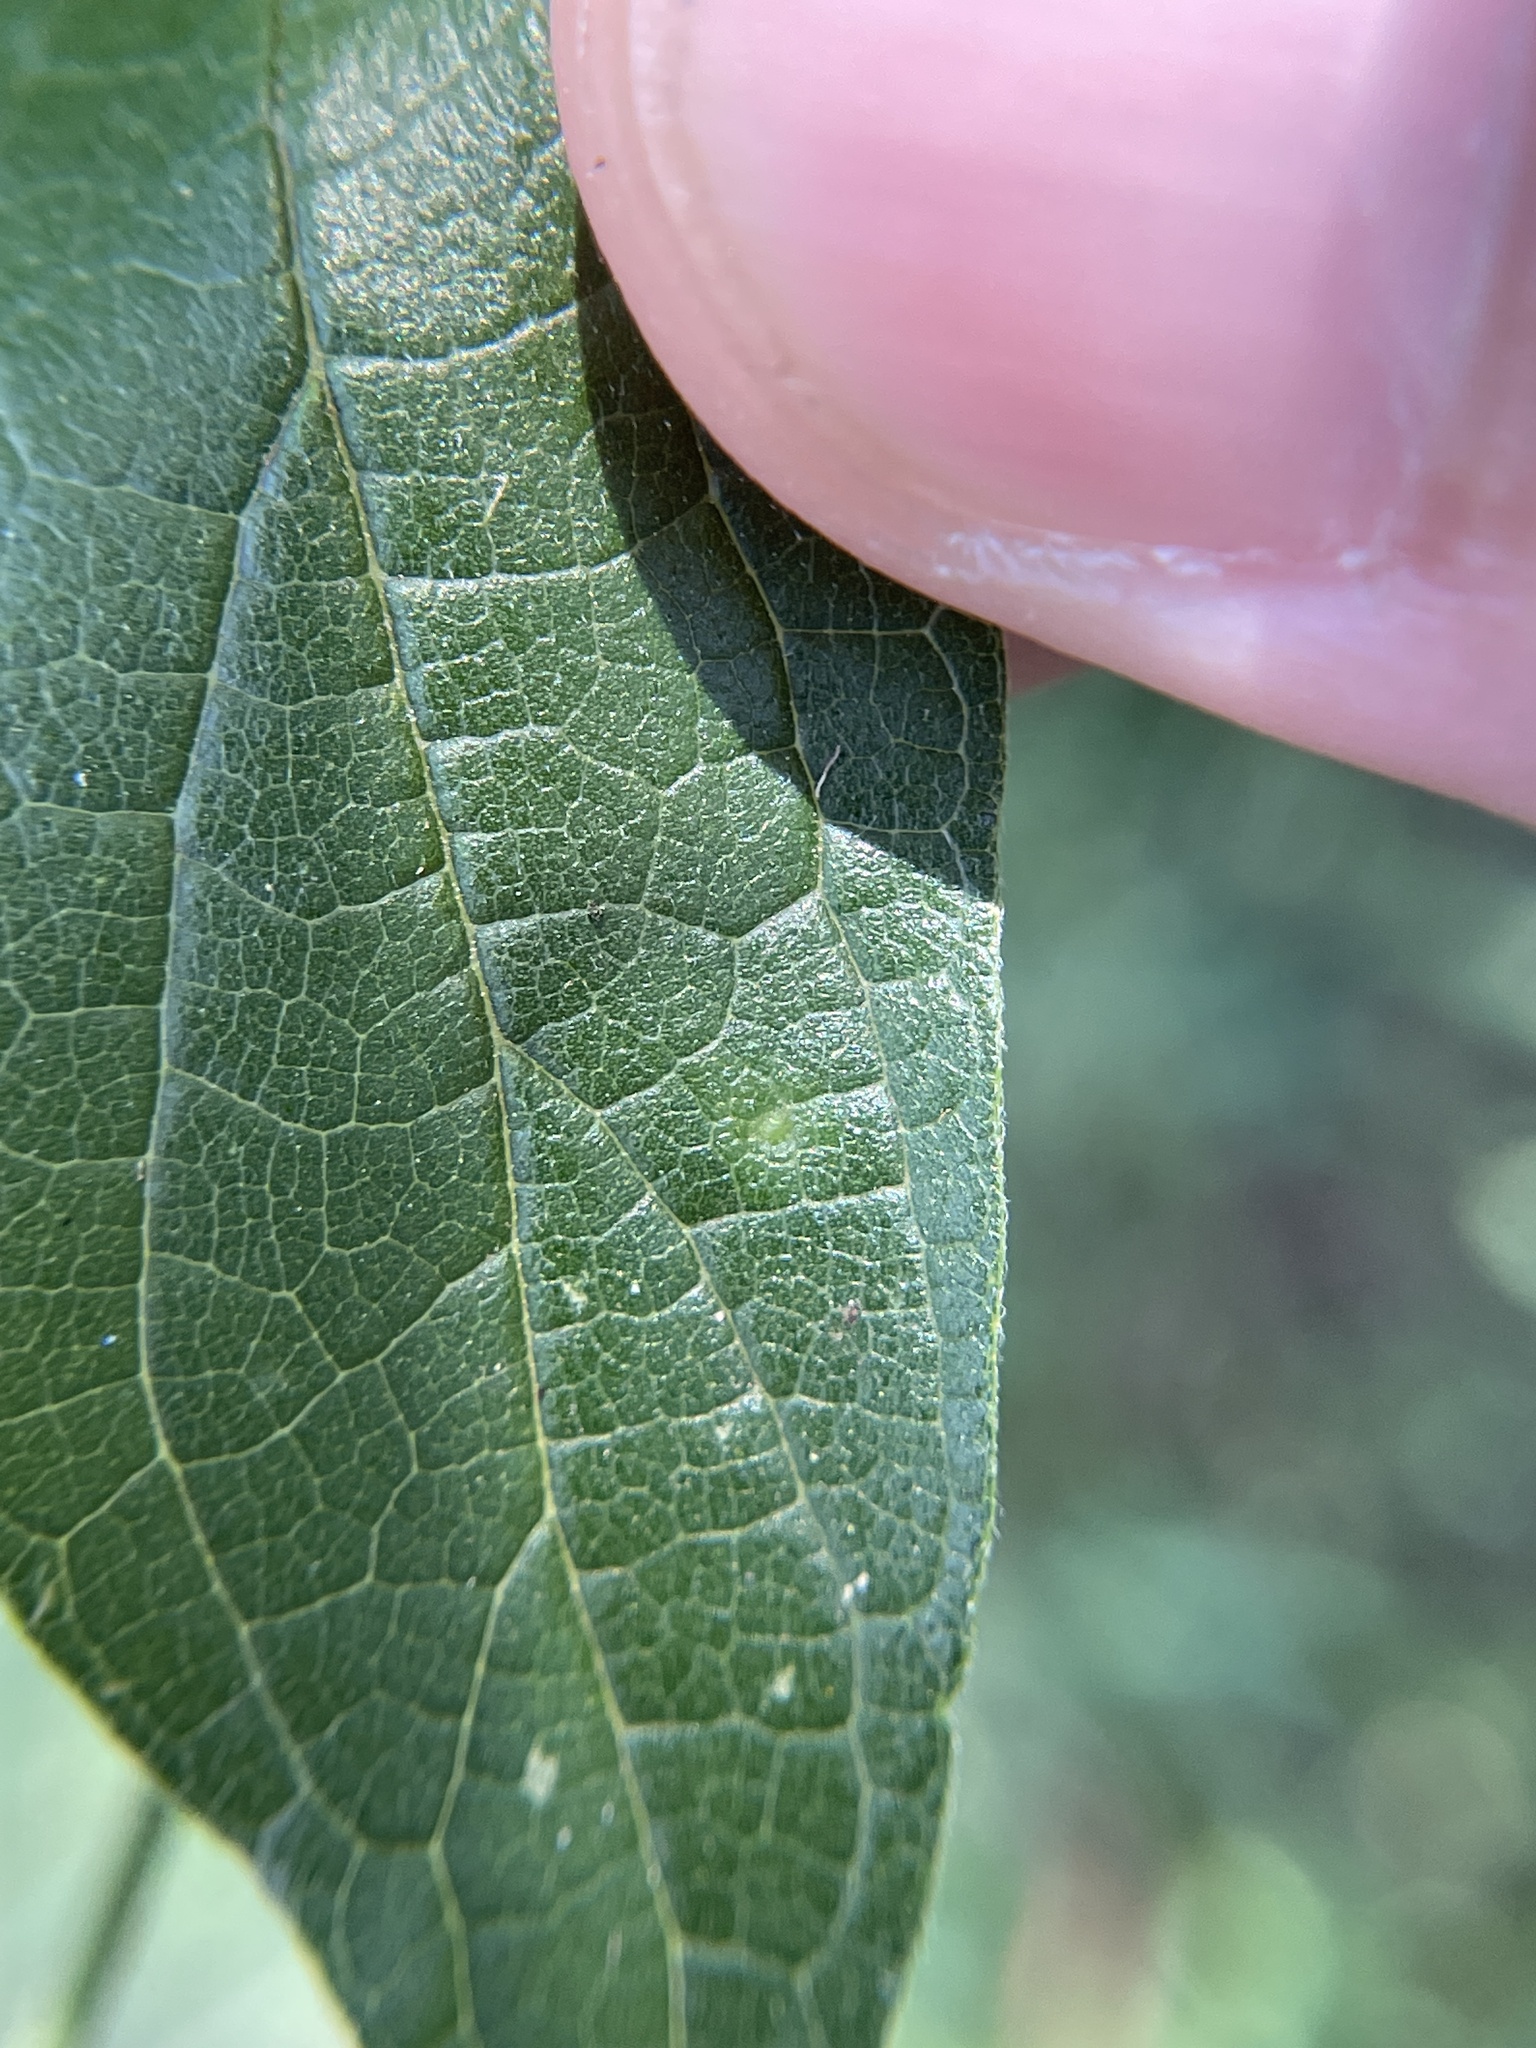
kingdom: Animalia
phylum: Arthropoda
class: Insecta
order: Diptera
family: Cecidomyiidae
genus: Celticecis
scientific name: Celticecis subulata
